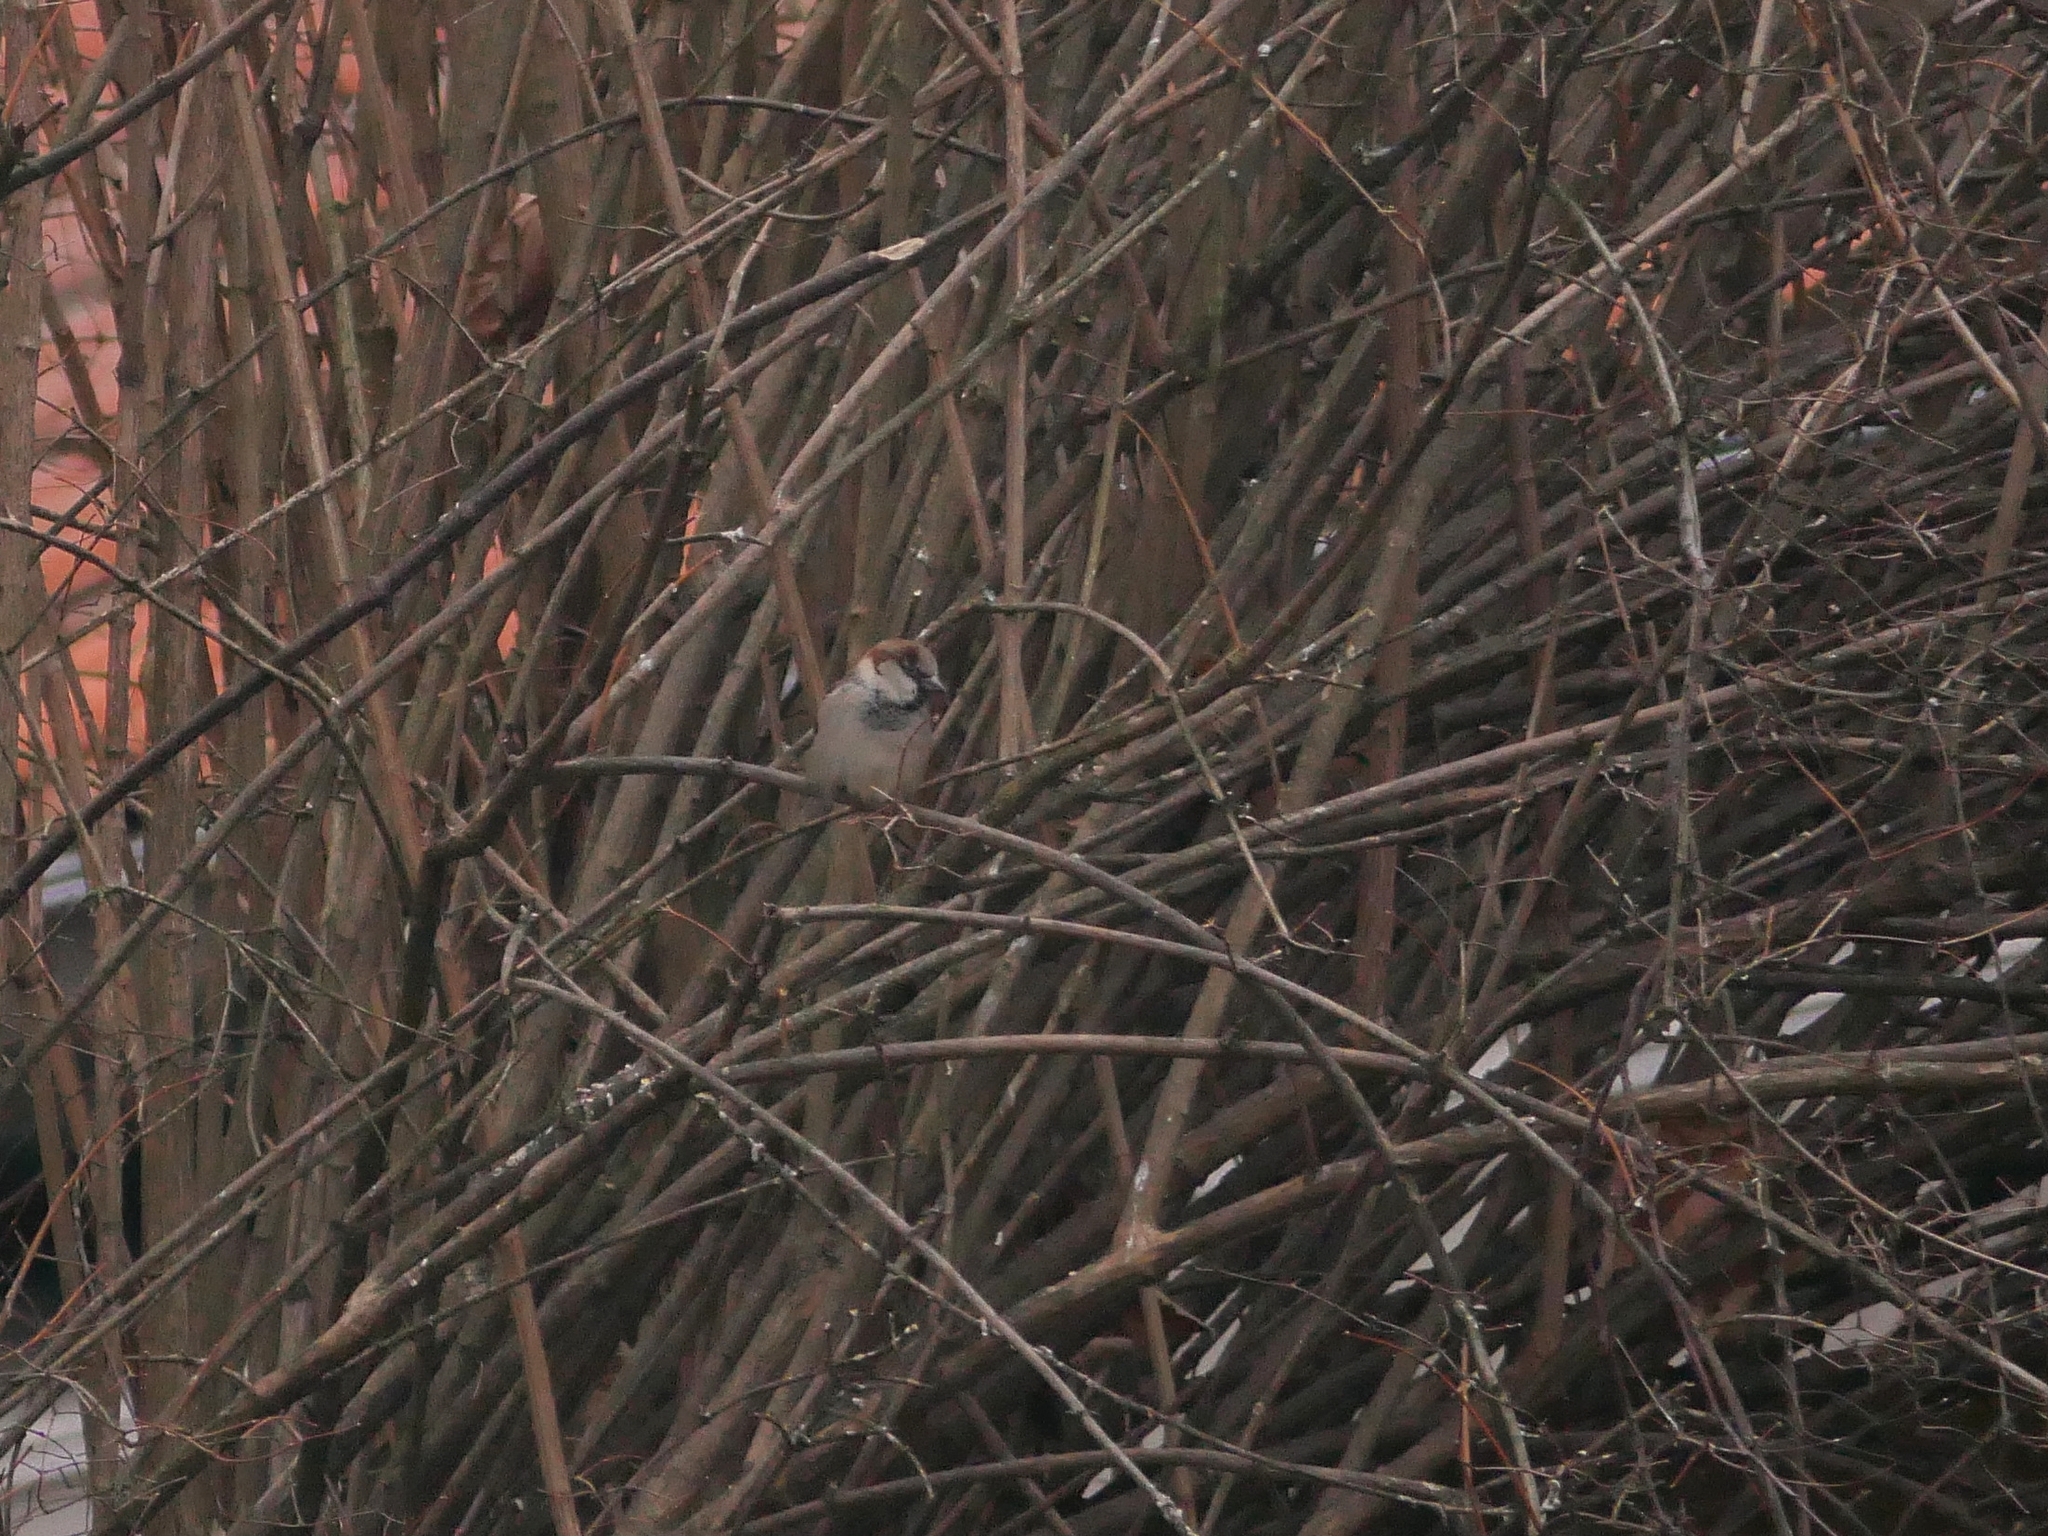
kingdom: Animalia
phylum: Chordata
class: Aves
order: Passeriformes
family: Passeridae
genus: Passer
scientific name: Passer domesticus
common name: House sparrow
